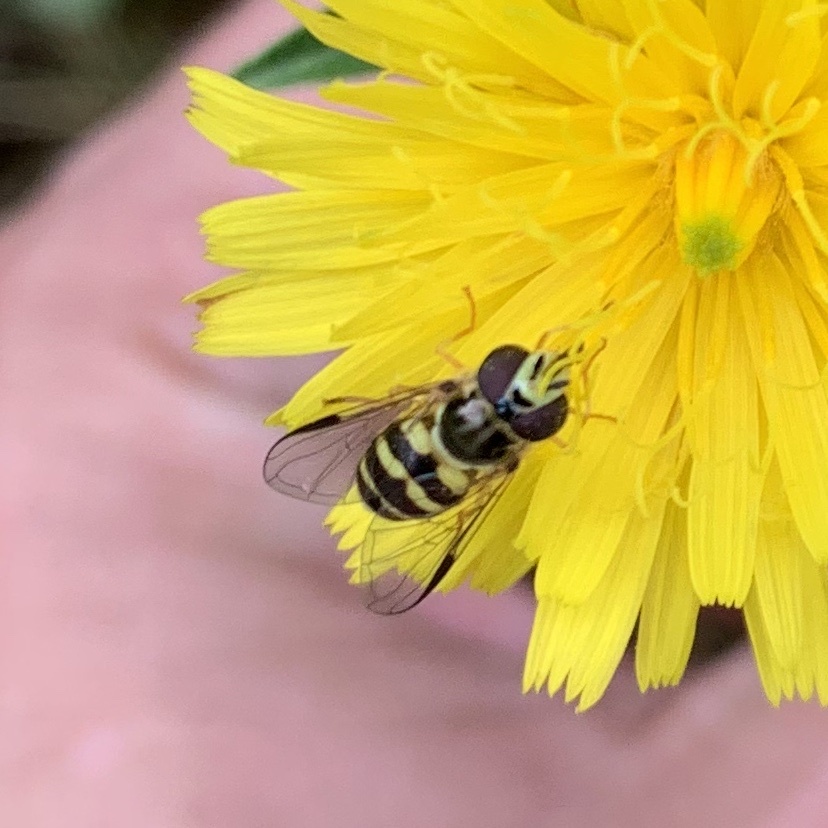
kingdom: Animalia
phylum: Arthropoda
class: Insecta
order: Diptera
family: Syrphidae
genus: Dasysyrphus
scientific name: Dasysyrphus albostriatus
